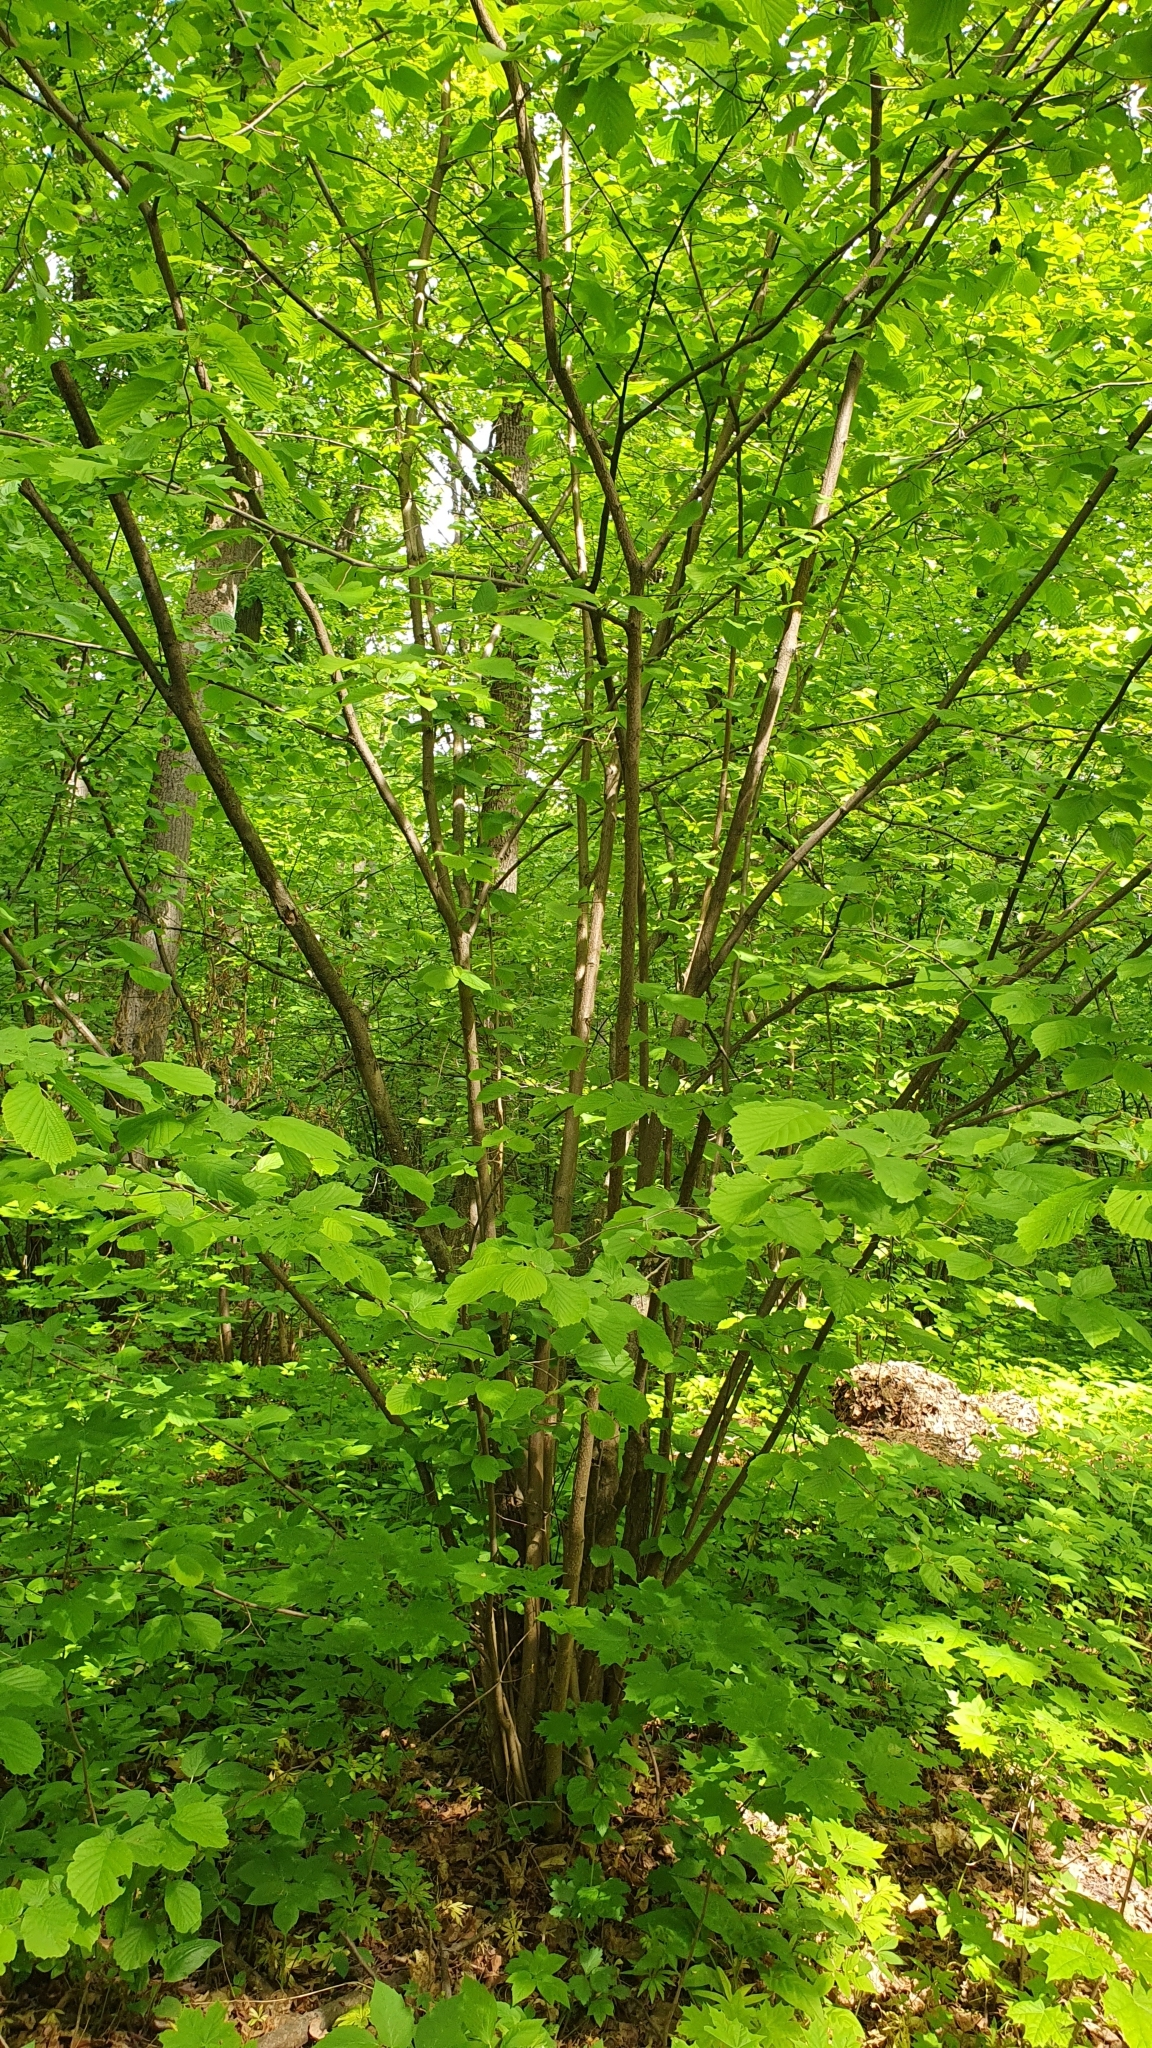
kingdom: Plantae
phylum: Tracheophyta
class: Magnoliopsida
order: Fagales
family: Betulaceae
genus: Corylus
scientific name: Corylus avellana
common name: European hazel
